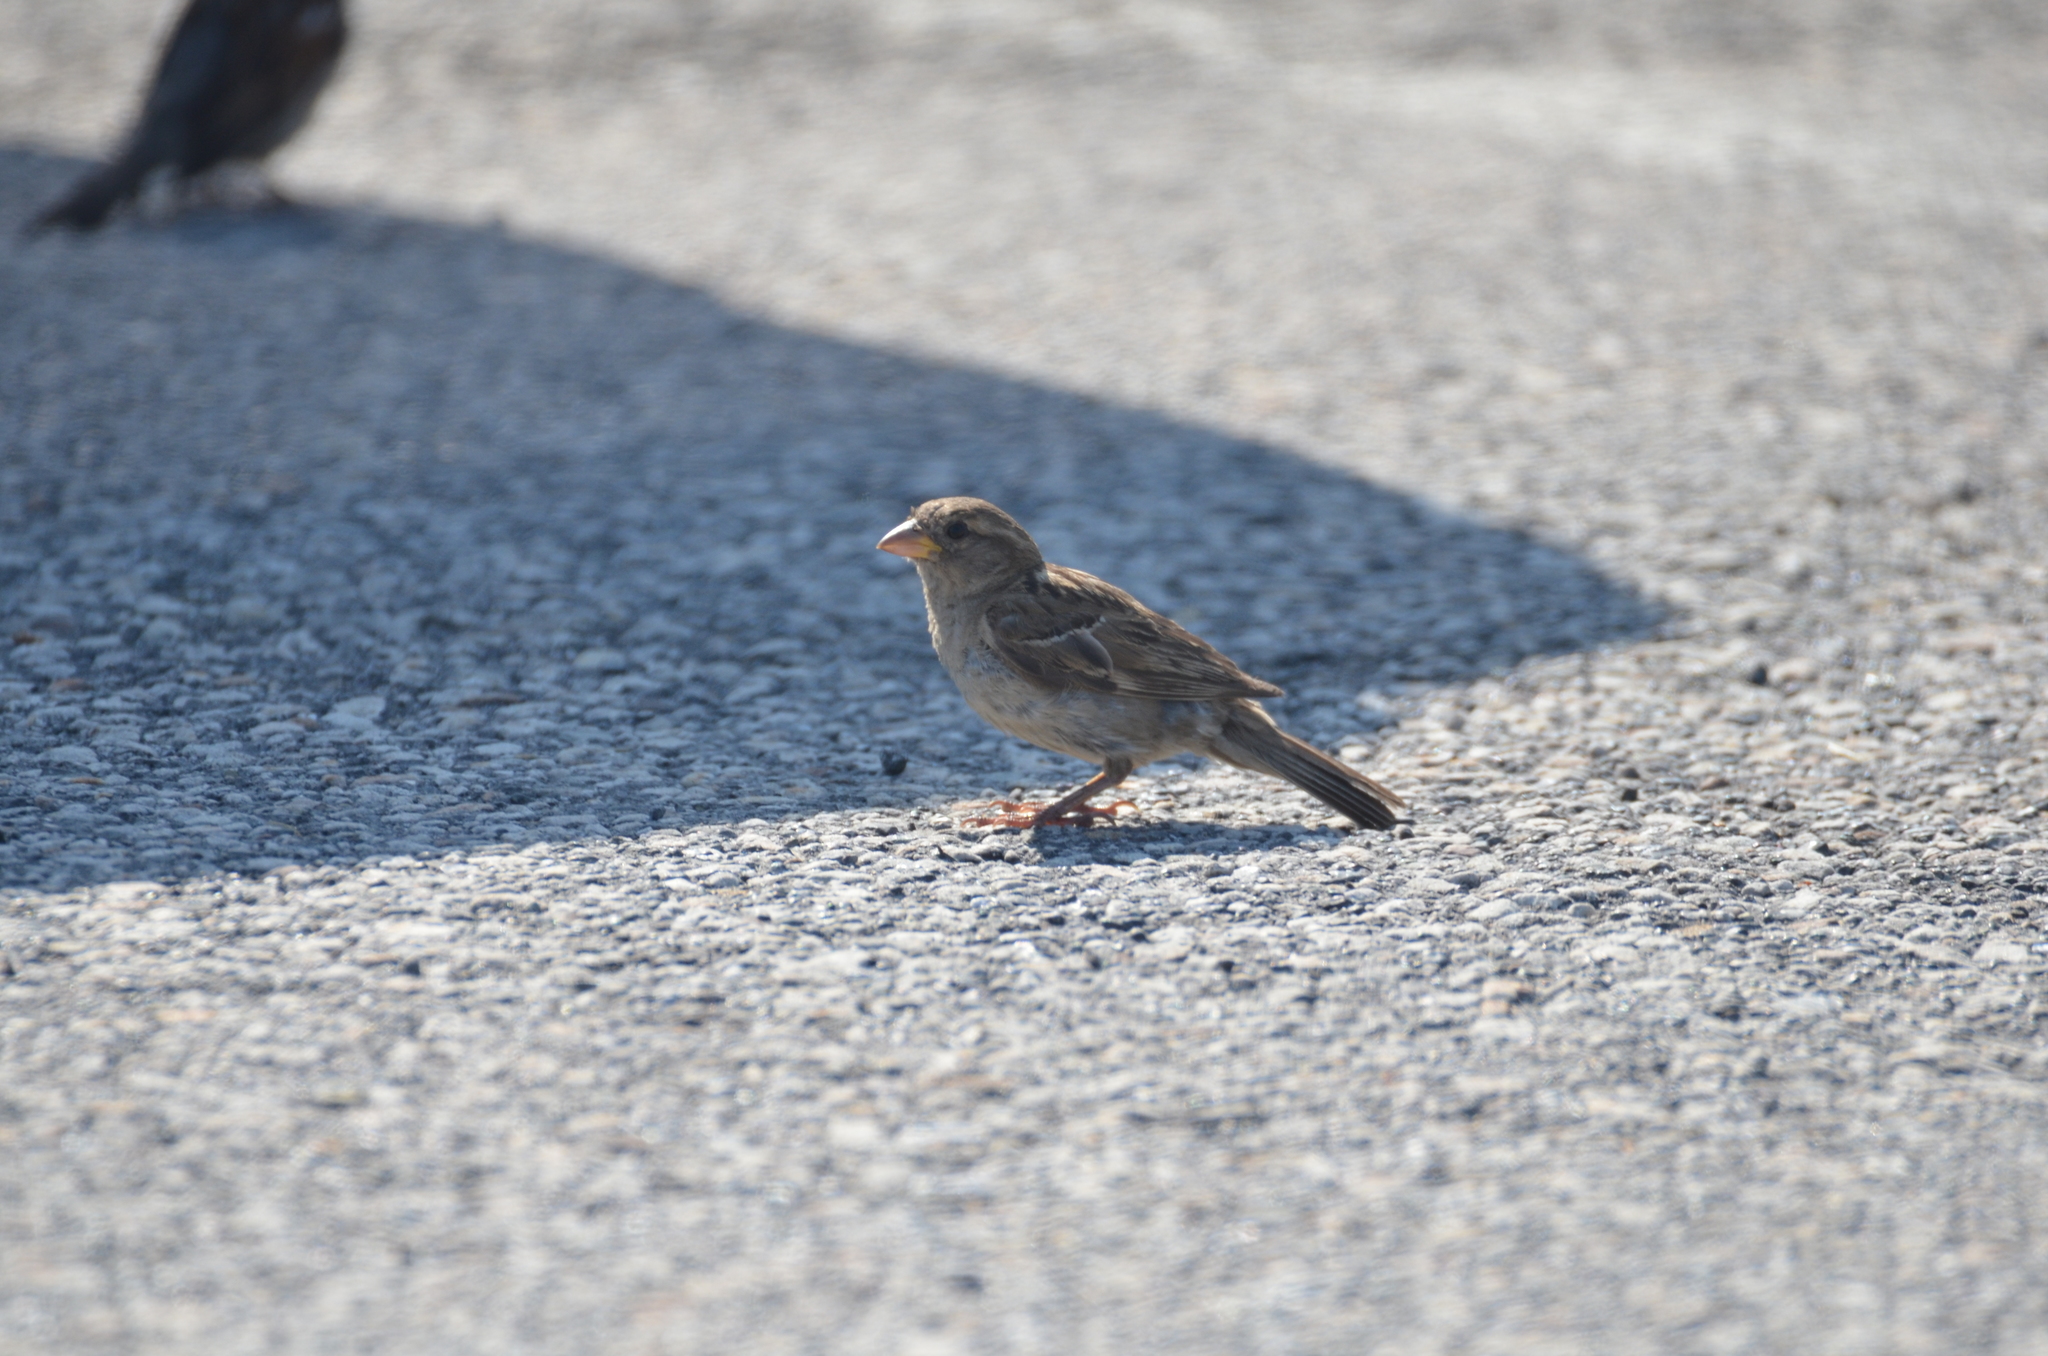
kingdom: Animalia
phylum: Chordata
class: Aves
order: Passeriformes
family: Passeridae
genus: Passer
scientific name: Passer domesticus
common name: House sparrow
